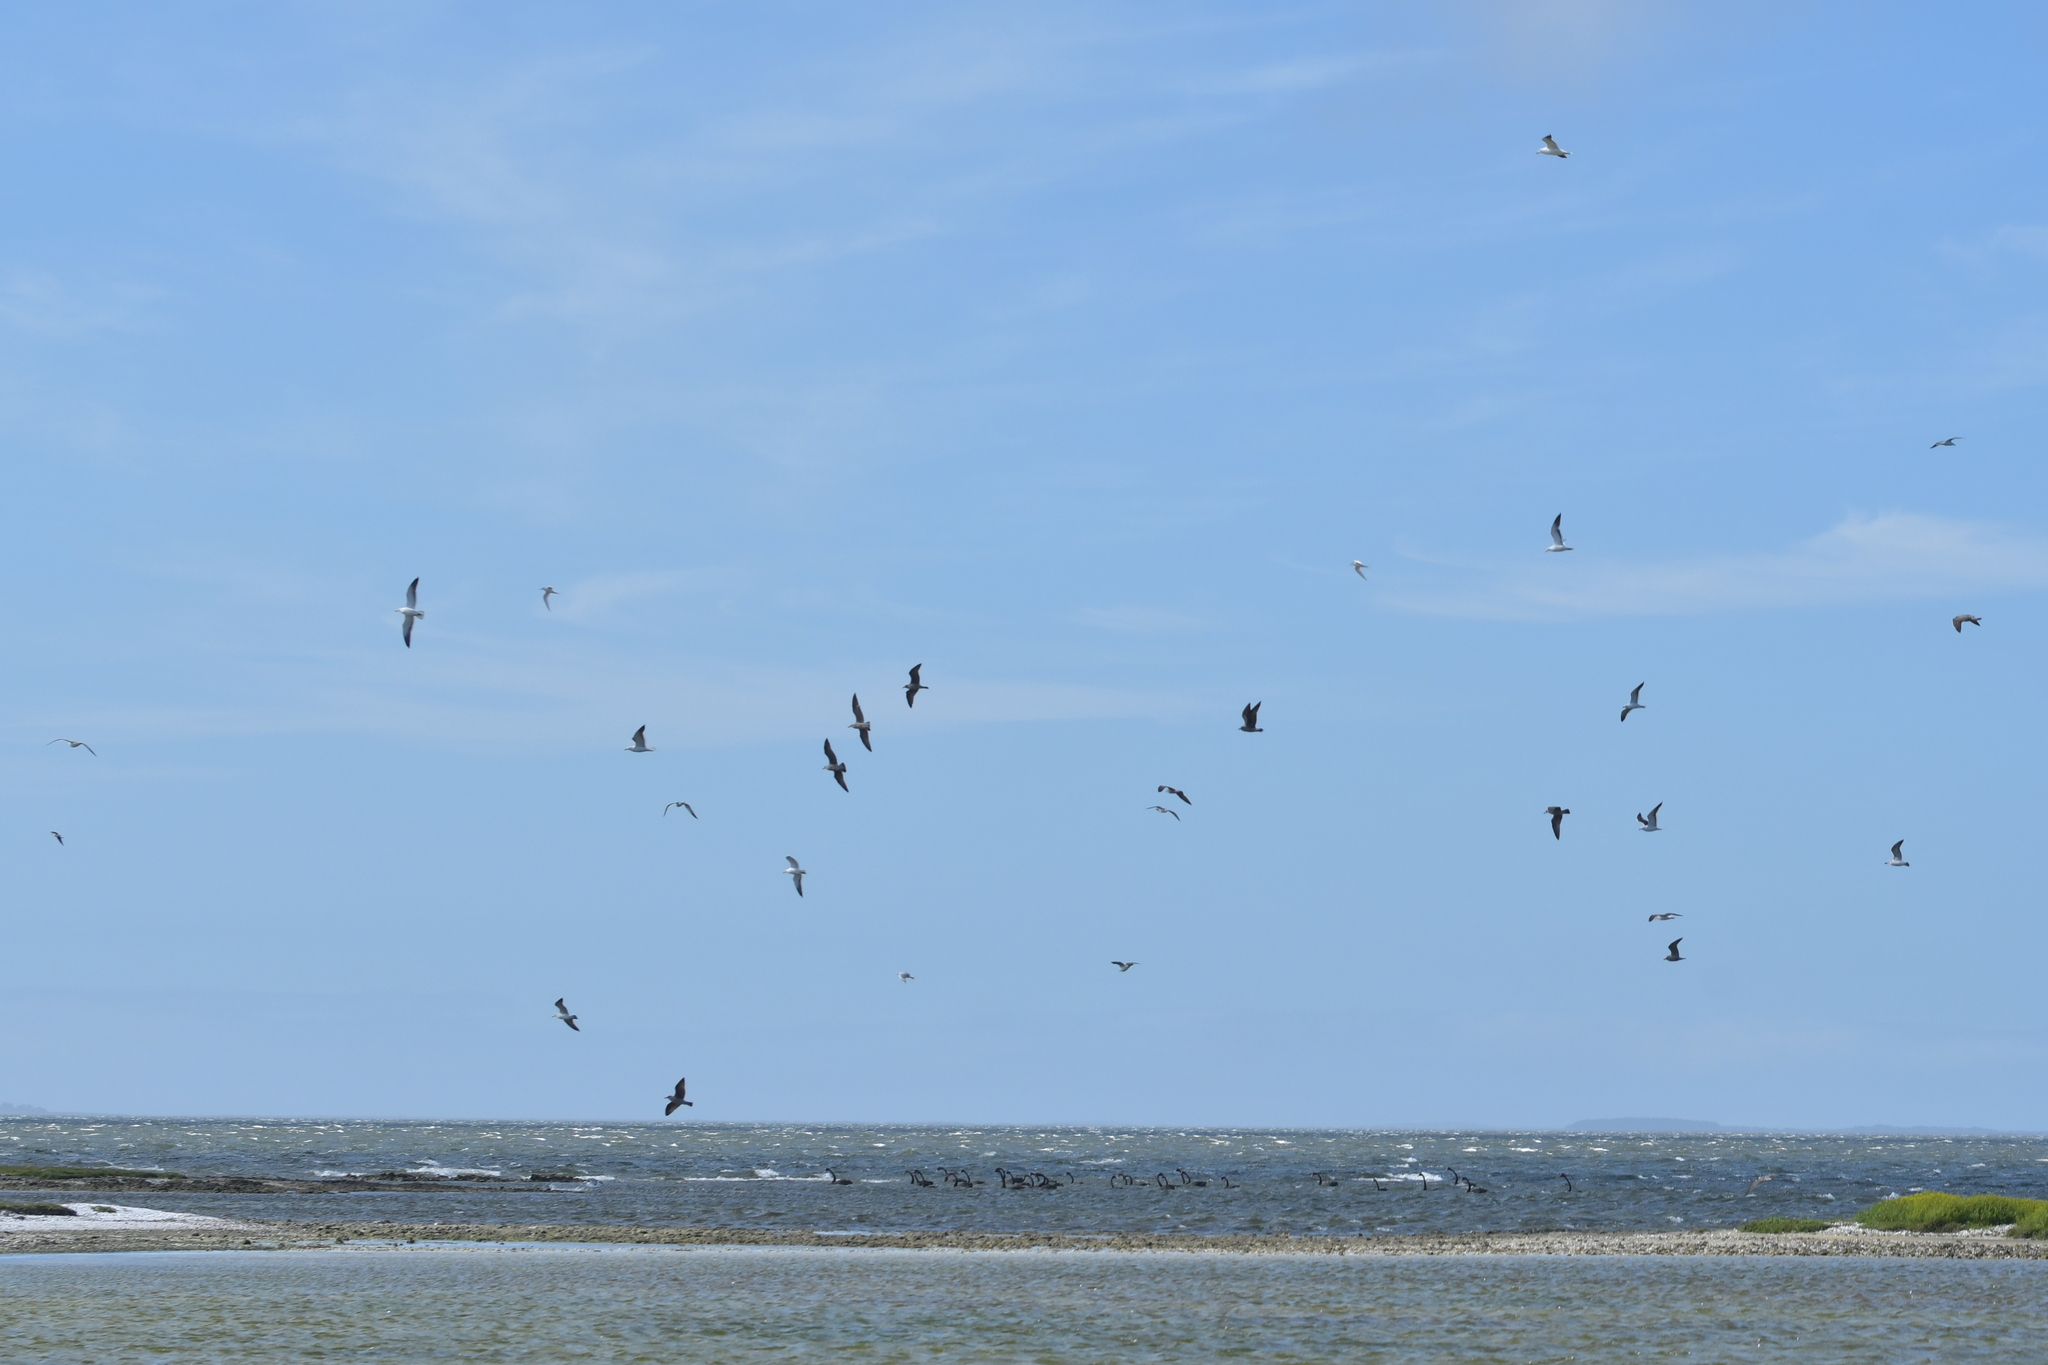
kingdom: Animalia
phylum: Chordata
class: Aves
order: Charadriiformes
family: Laridae
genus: Larus
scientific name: Larus dominicanus
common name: Kelp gull
